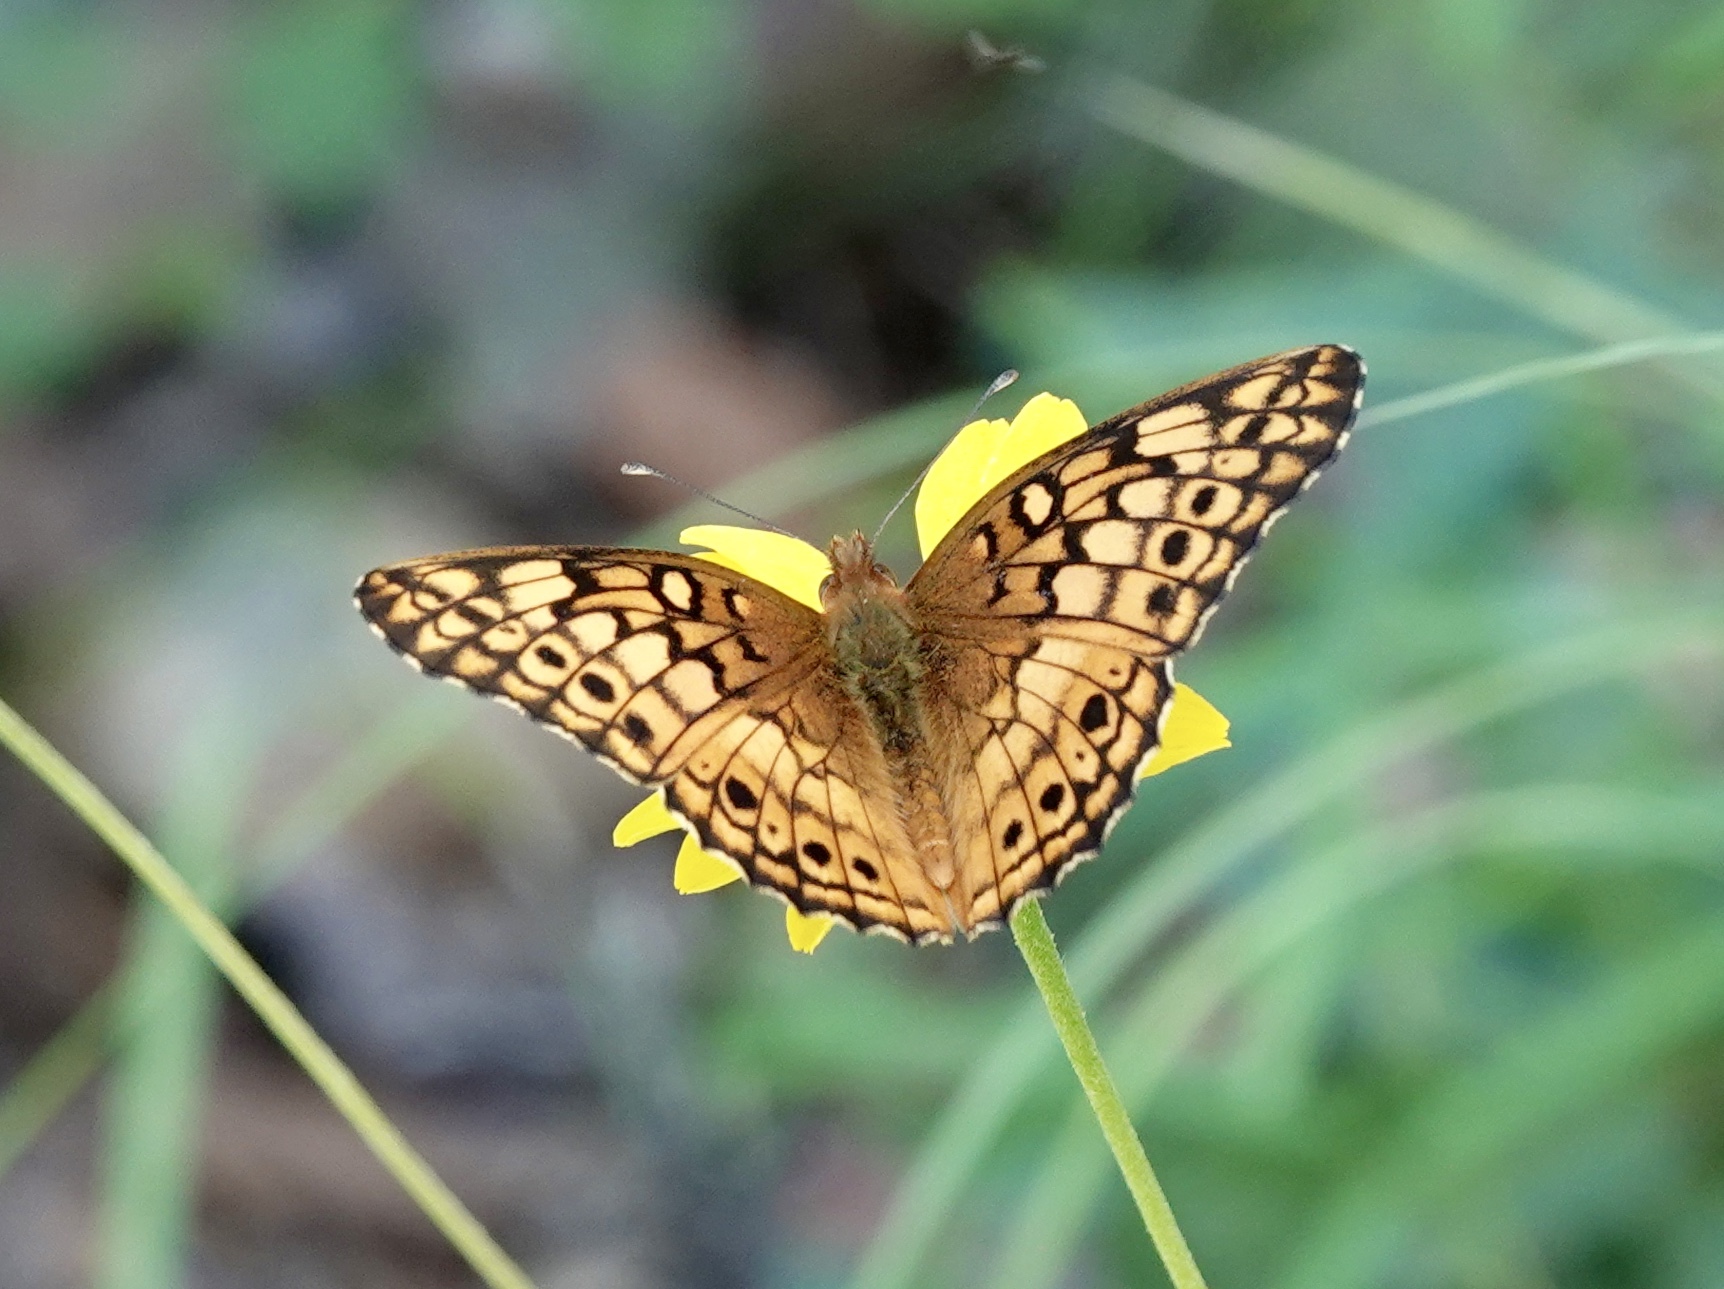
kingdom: Animalia
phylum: Arthropoda
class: Insecta
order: Lepidoptera
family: Nymphalidae
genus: Euptoieta
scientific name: Euptoieta claudia
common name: Variegated fritillary
